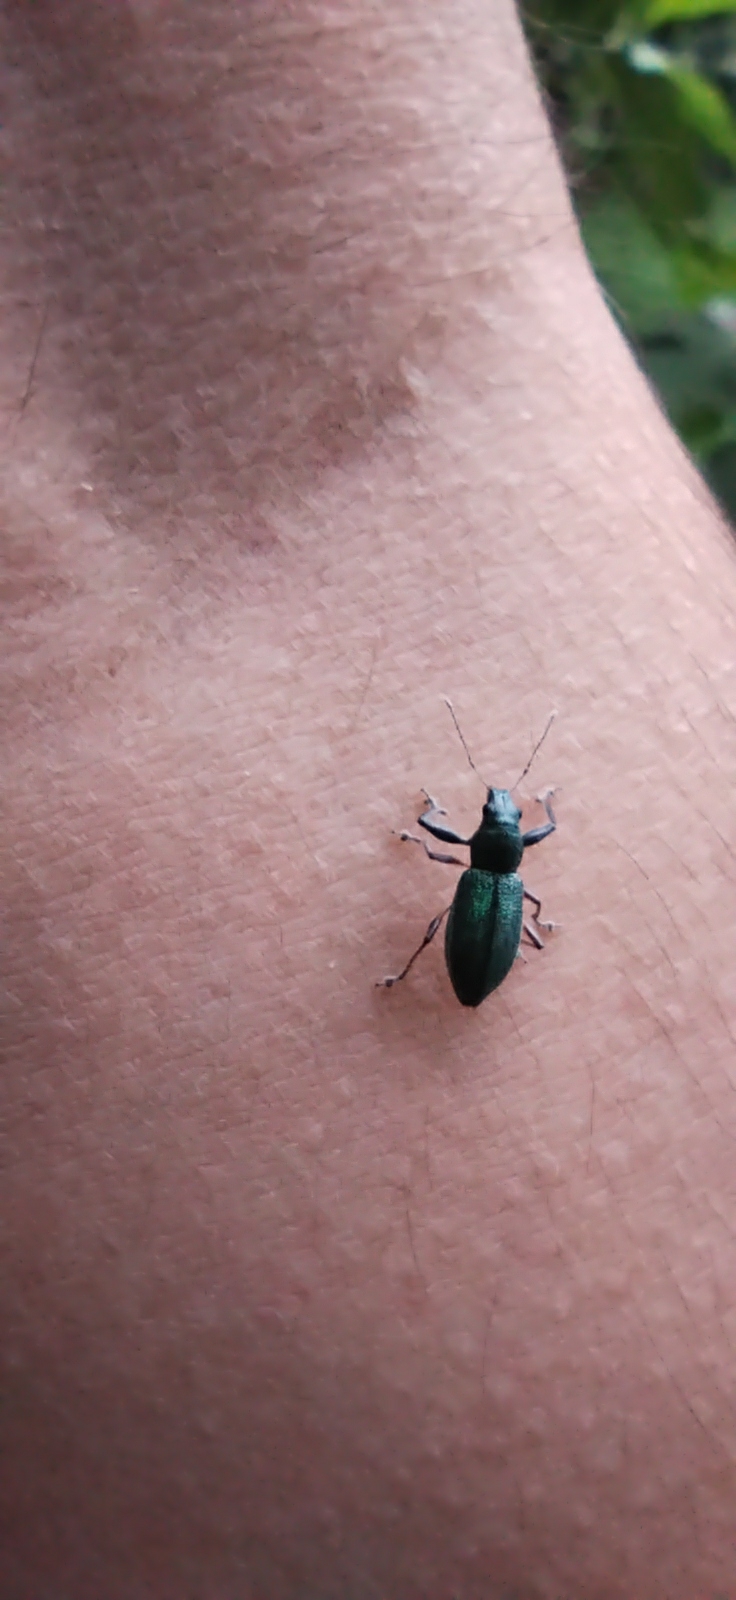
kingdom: Animalia
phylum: Arthropoda
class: Insecta
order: Coleoptera
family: Curculionidae
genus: Naupactus
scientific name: Naupactus auricinctus
